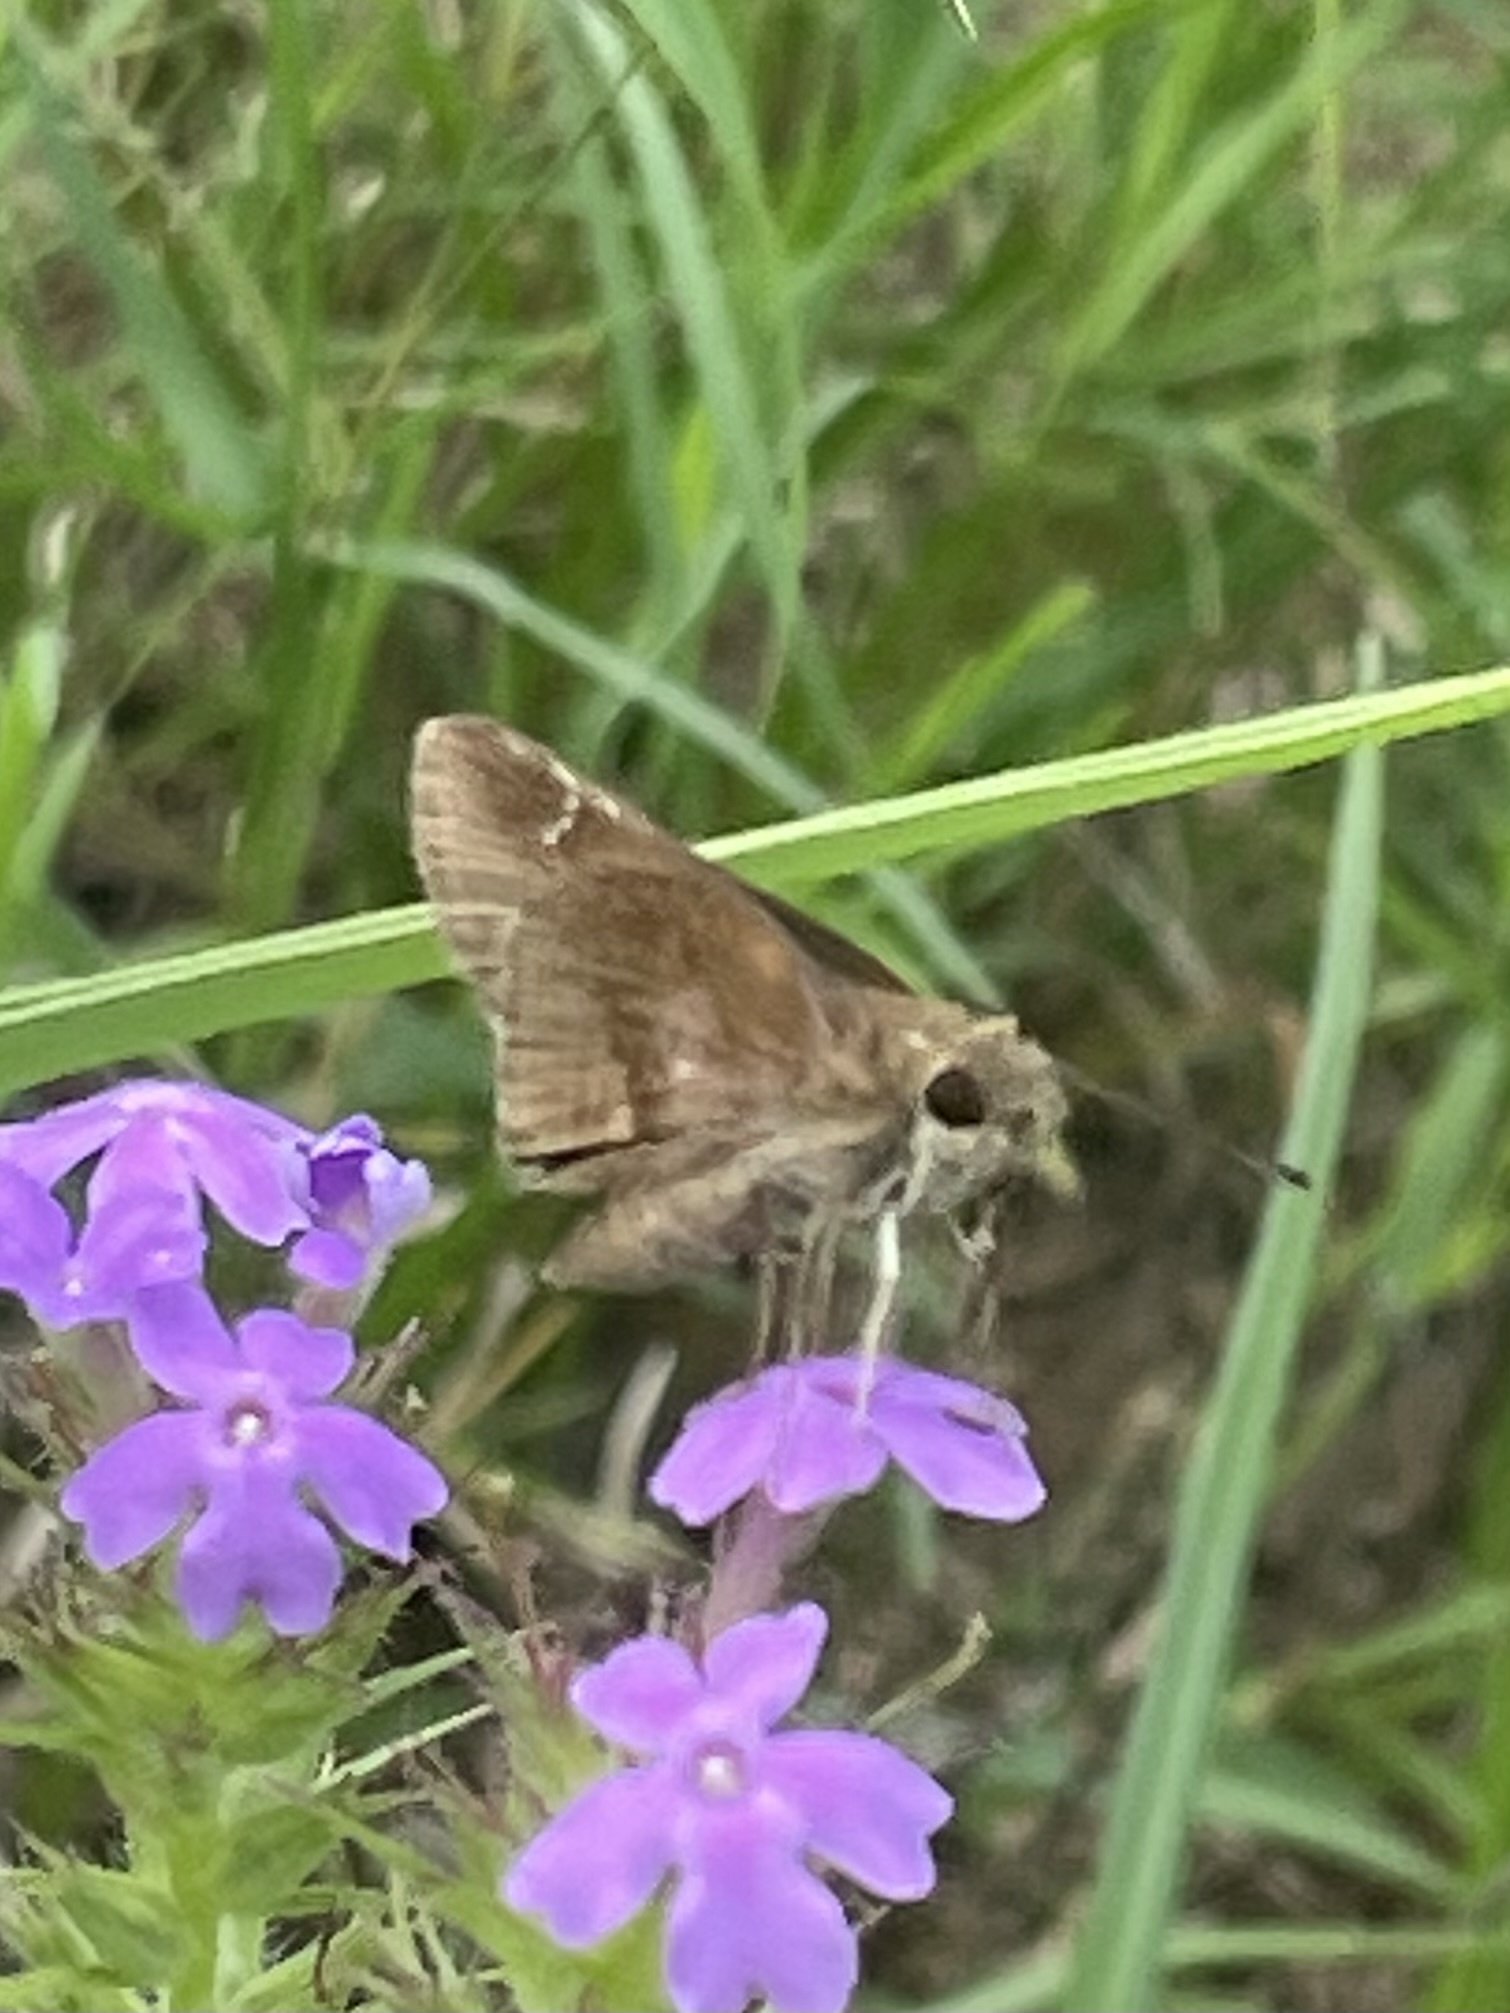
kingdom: Animalia
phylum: Arthropoda
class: Insecta
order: Lepidoptera
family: Hesperiidae
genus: Lerema
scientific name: Lerema accius
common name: Clouded skipper
